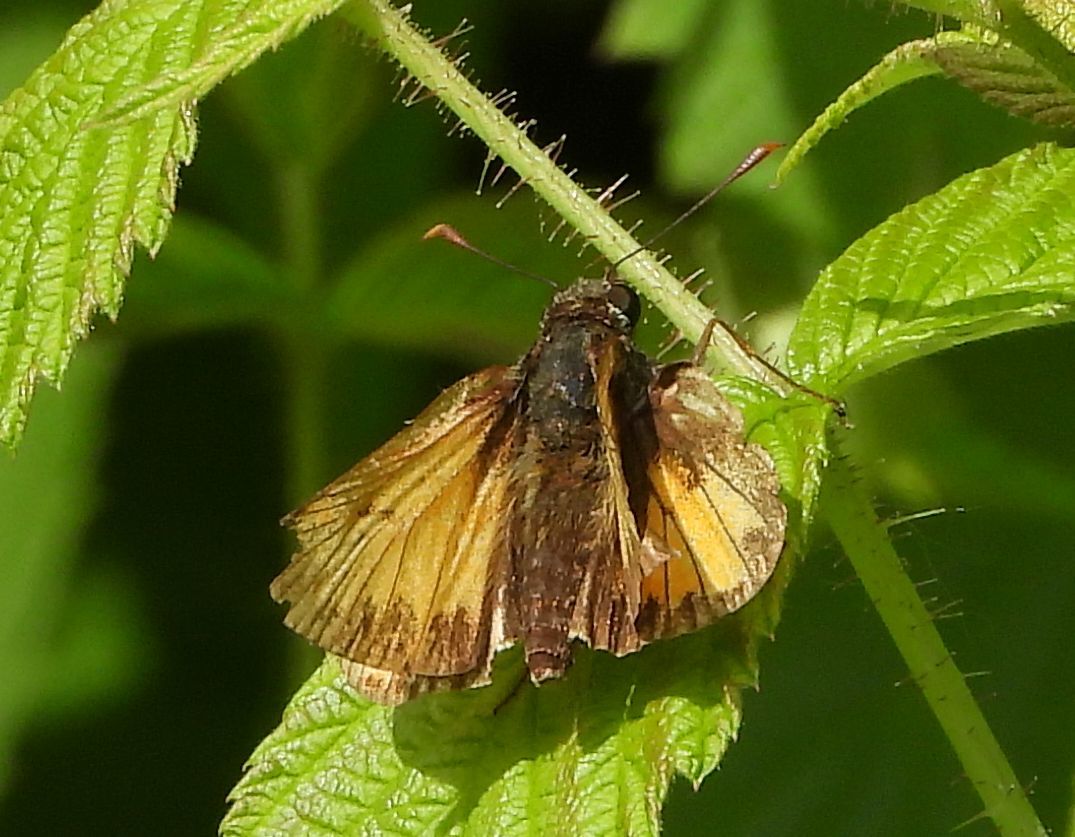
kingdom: Animalia
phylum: Arthropoda
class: Insecta
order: Lepidoptera
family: Hesperiidae
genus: Lon
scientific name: Lon hobomok
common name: Hobomok skipper
